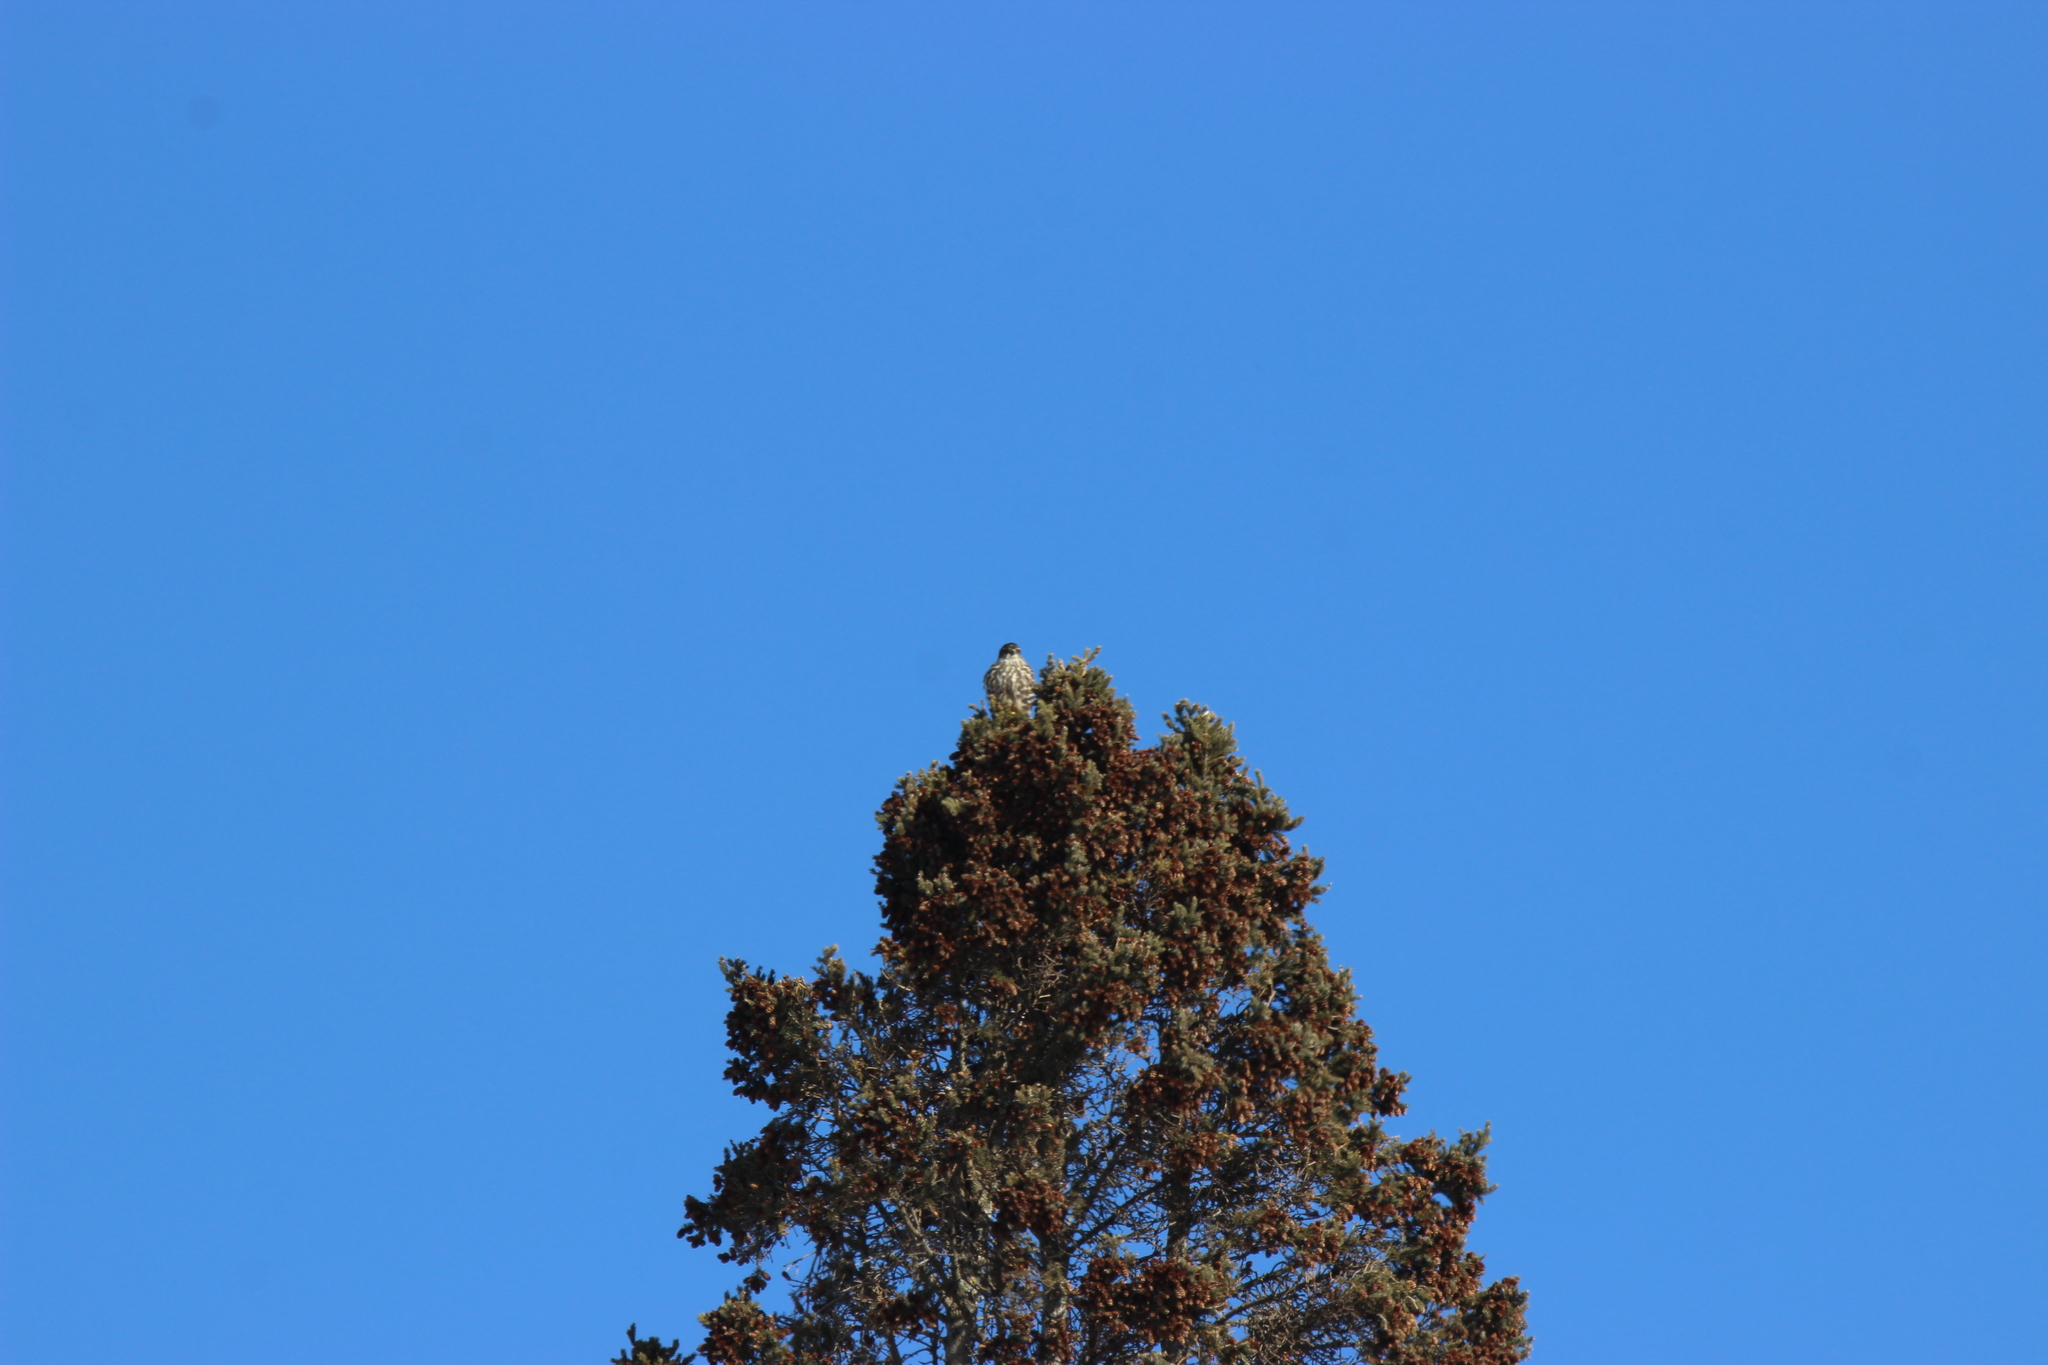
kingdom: Animalia
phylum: Chordata
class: Aves
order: Falconiformes
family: Falconidae
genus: Falco
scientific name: Falco columbarius
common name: Merlin
